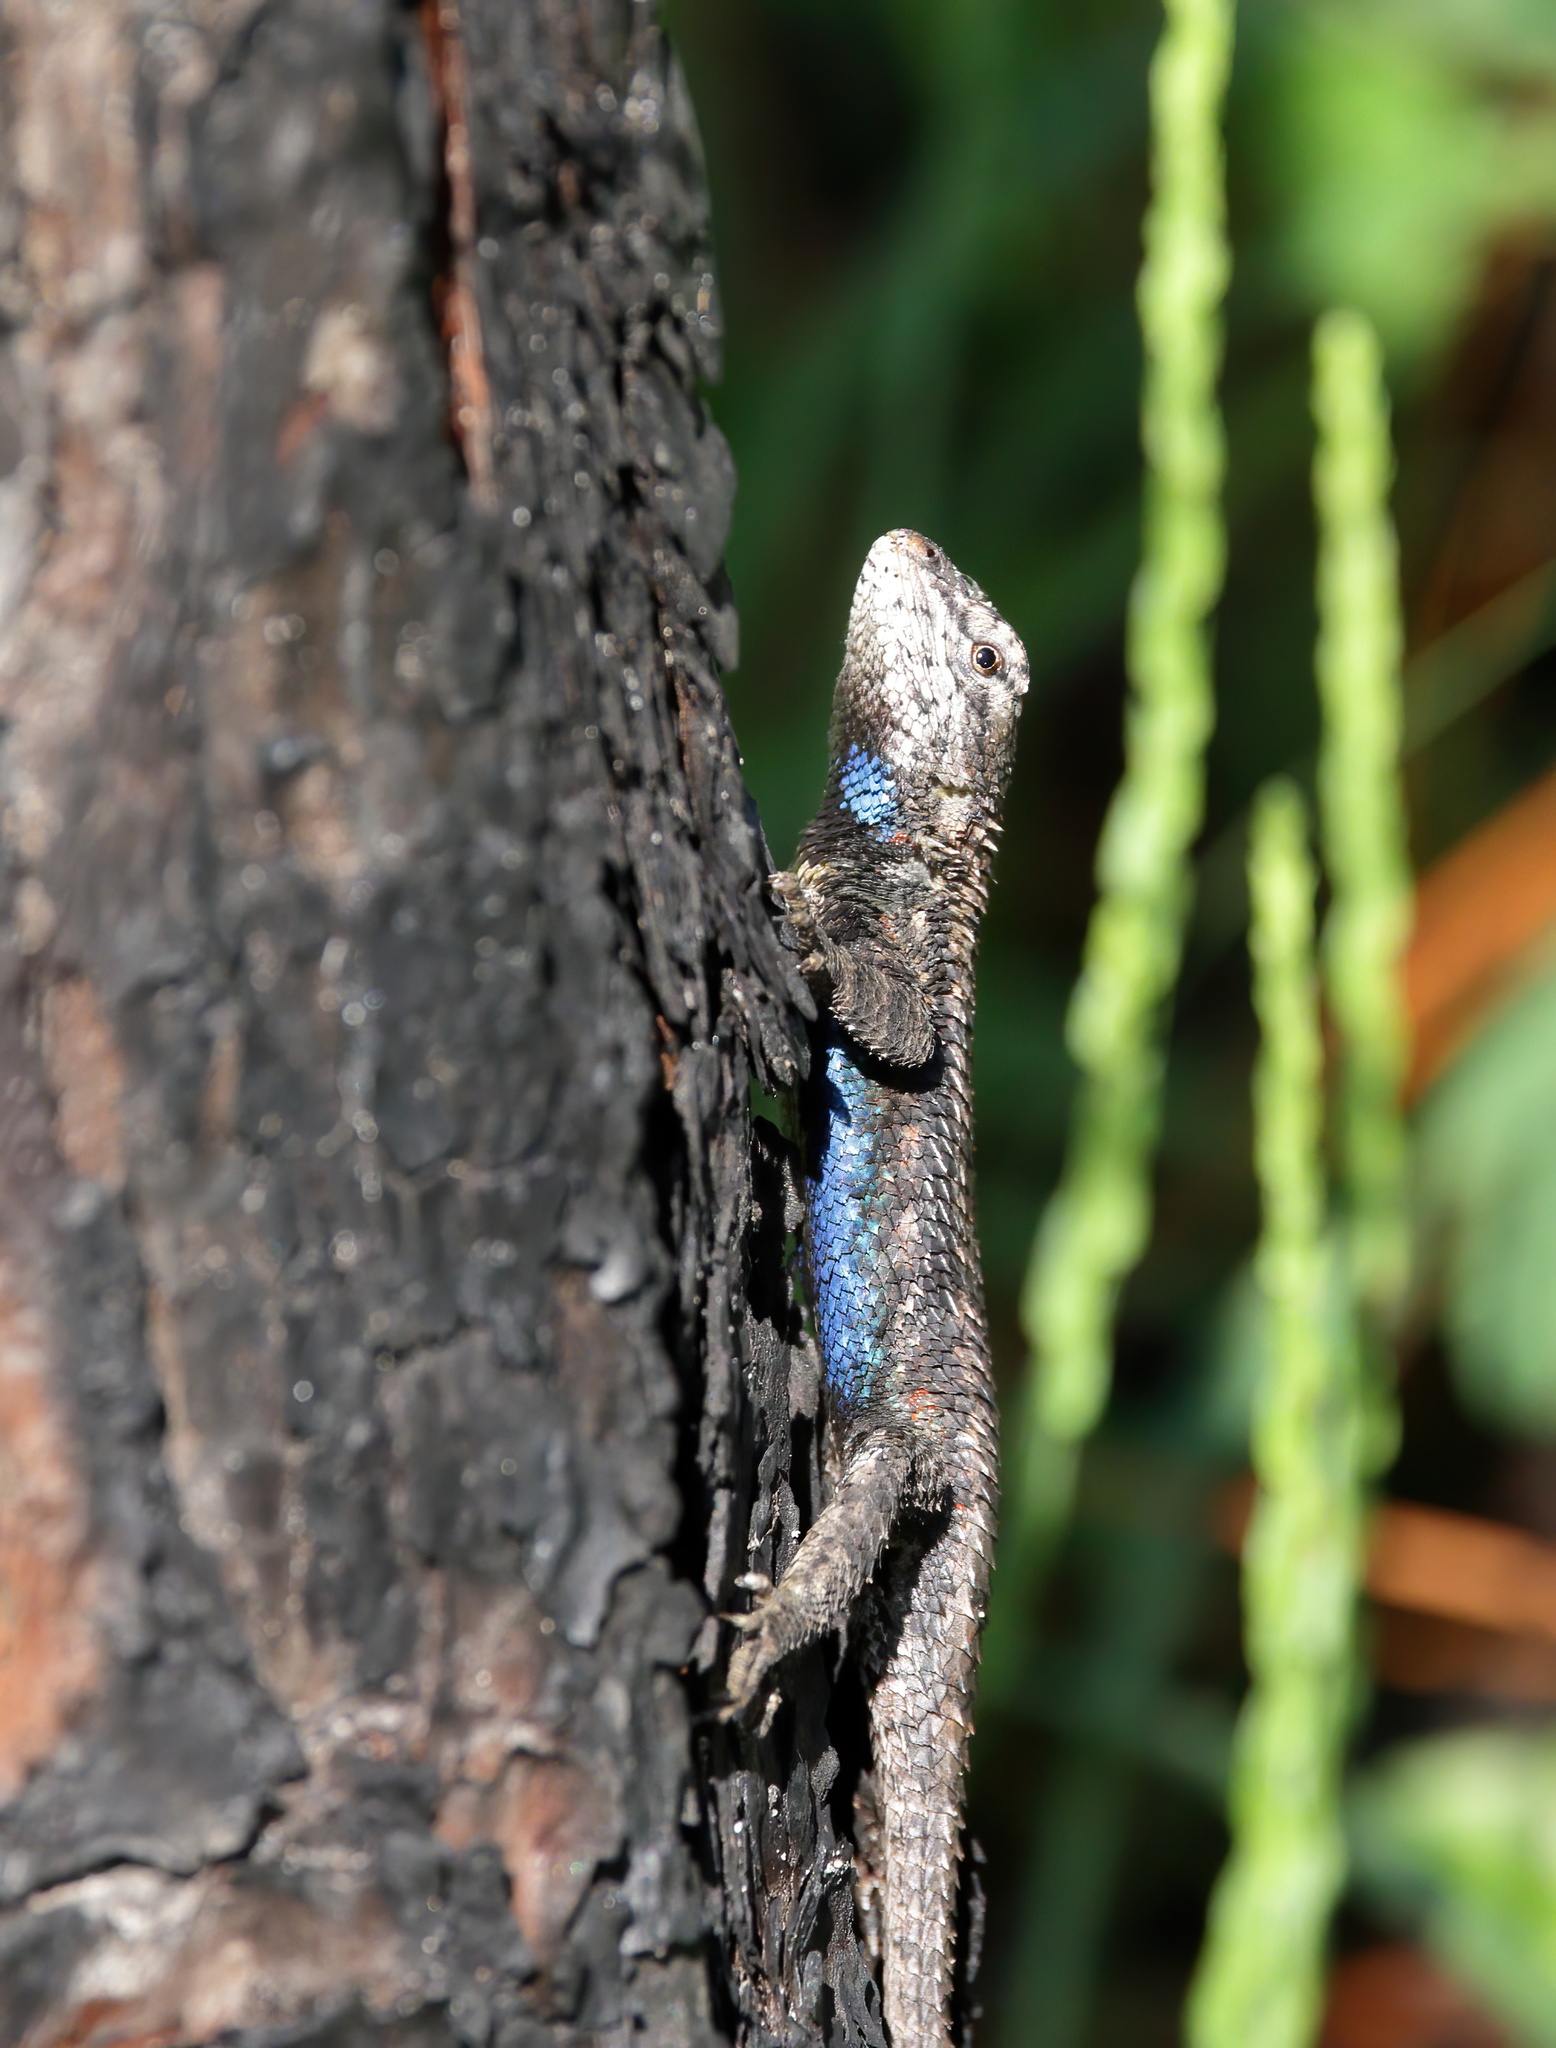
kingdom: Animalia
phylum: Chordata
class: Squamata
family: Phrynosomatidae
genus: Sceloporus
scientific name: Sceloporus undulatus
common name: Eastern fence lizard
